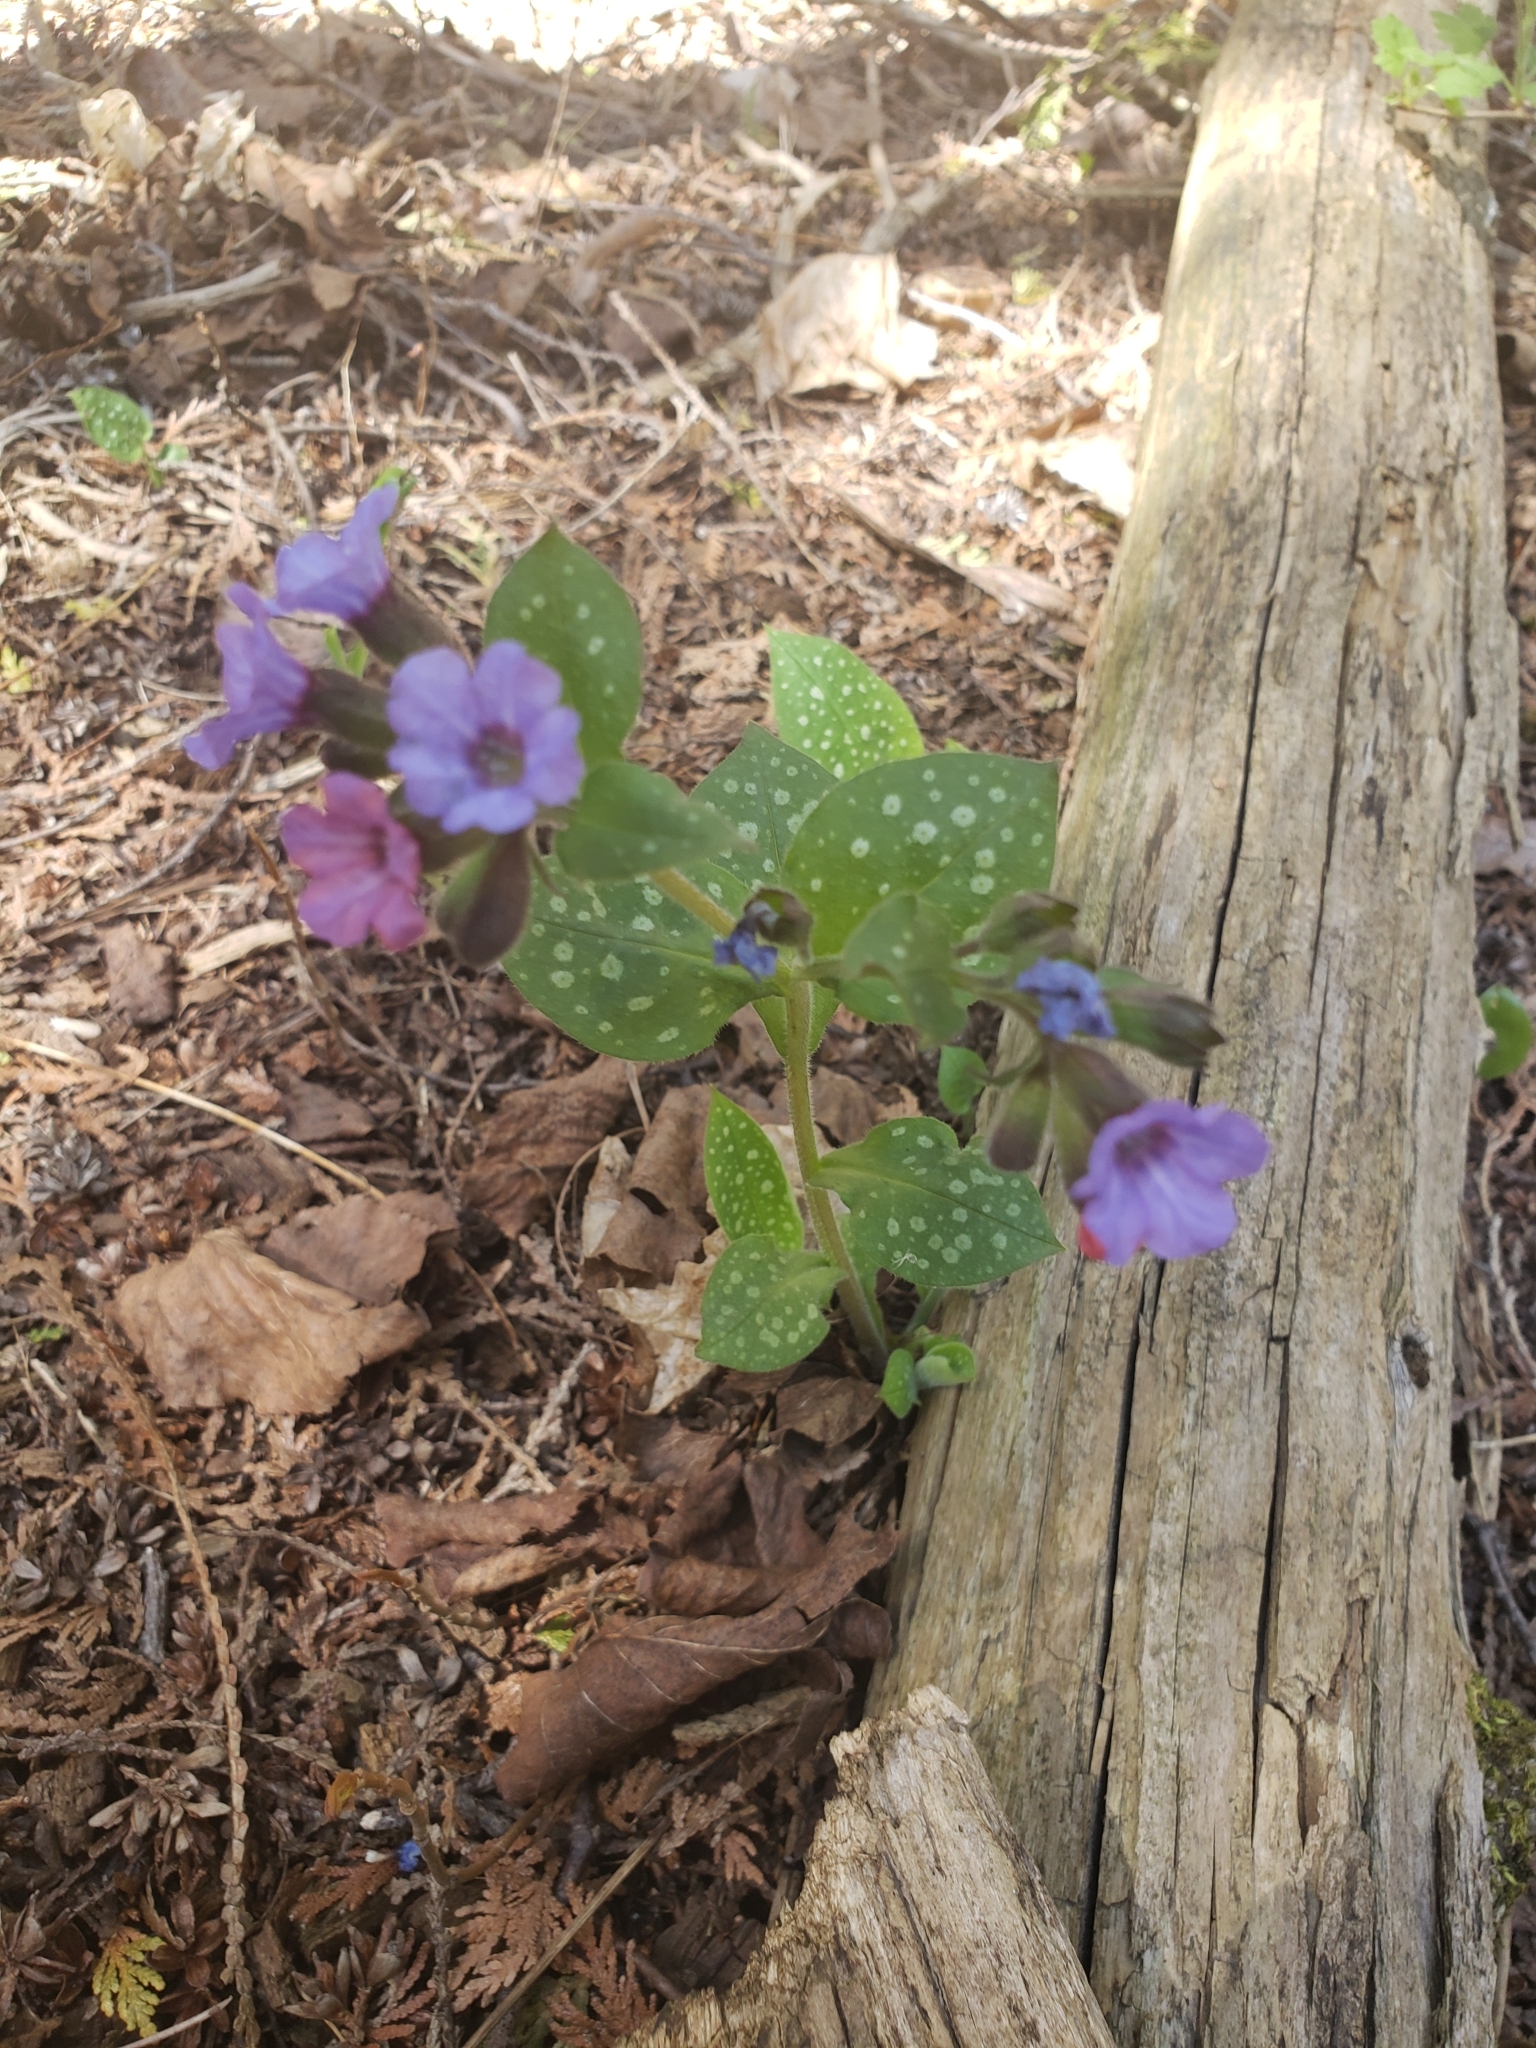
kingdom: Plantae
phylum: Tracheophyta
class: Magnoliopsida
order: Boraginales
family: Boraginaceae
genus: Pulmonaria
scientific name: Pulmonaria officinalis
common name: Lungwort
